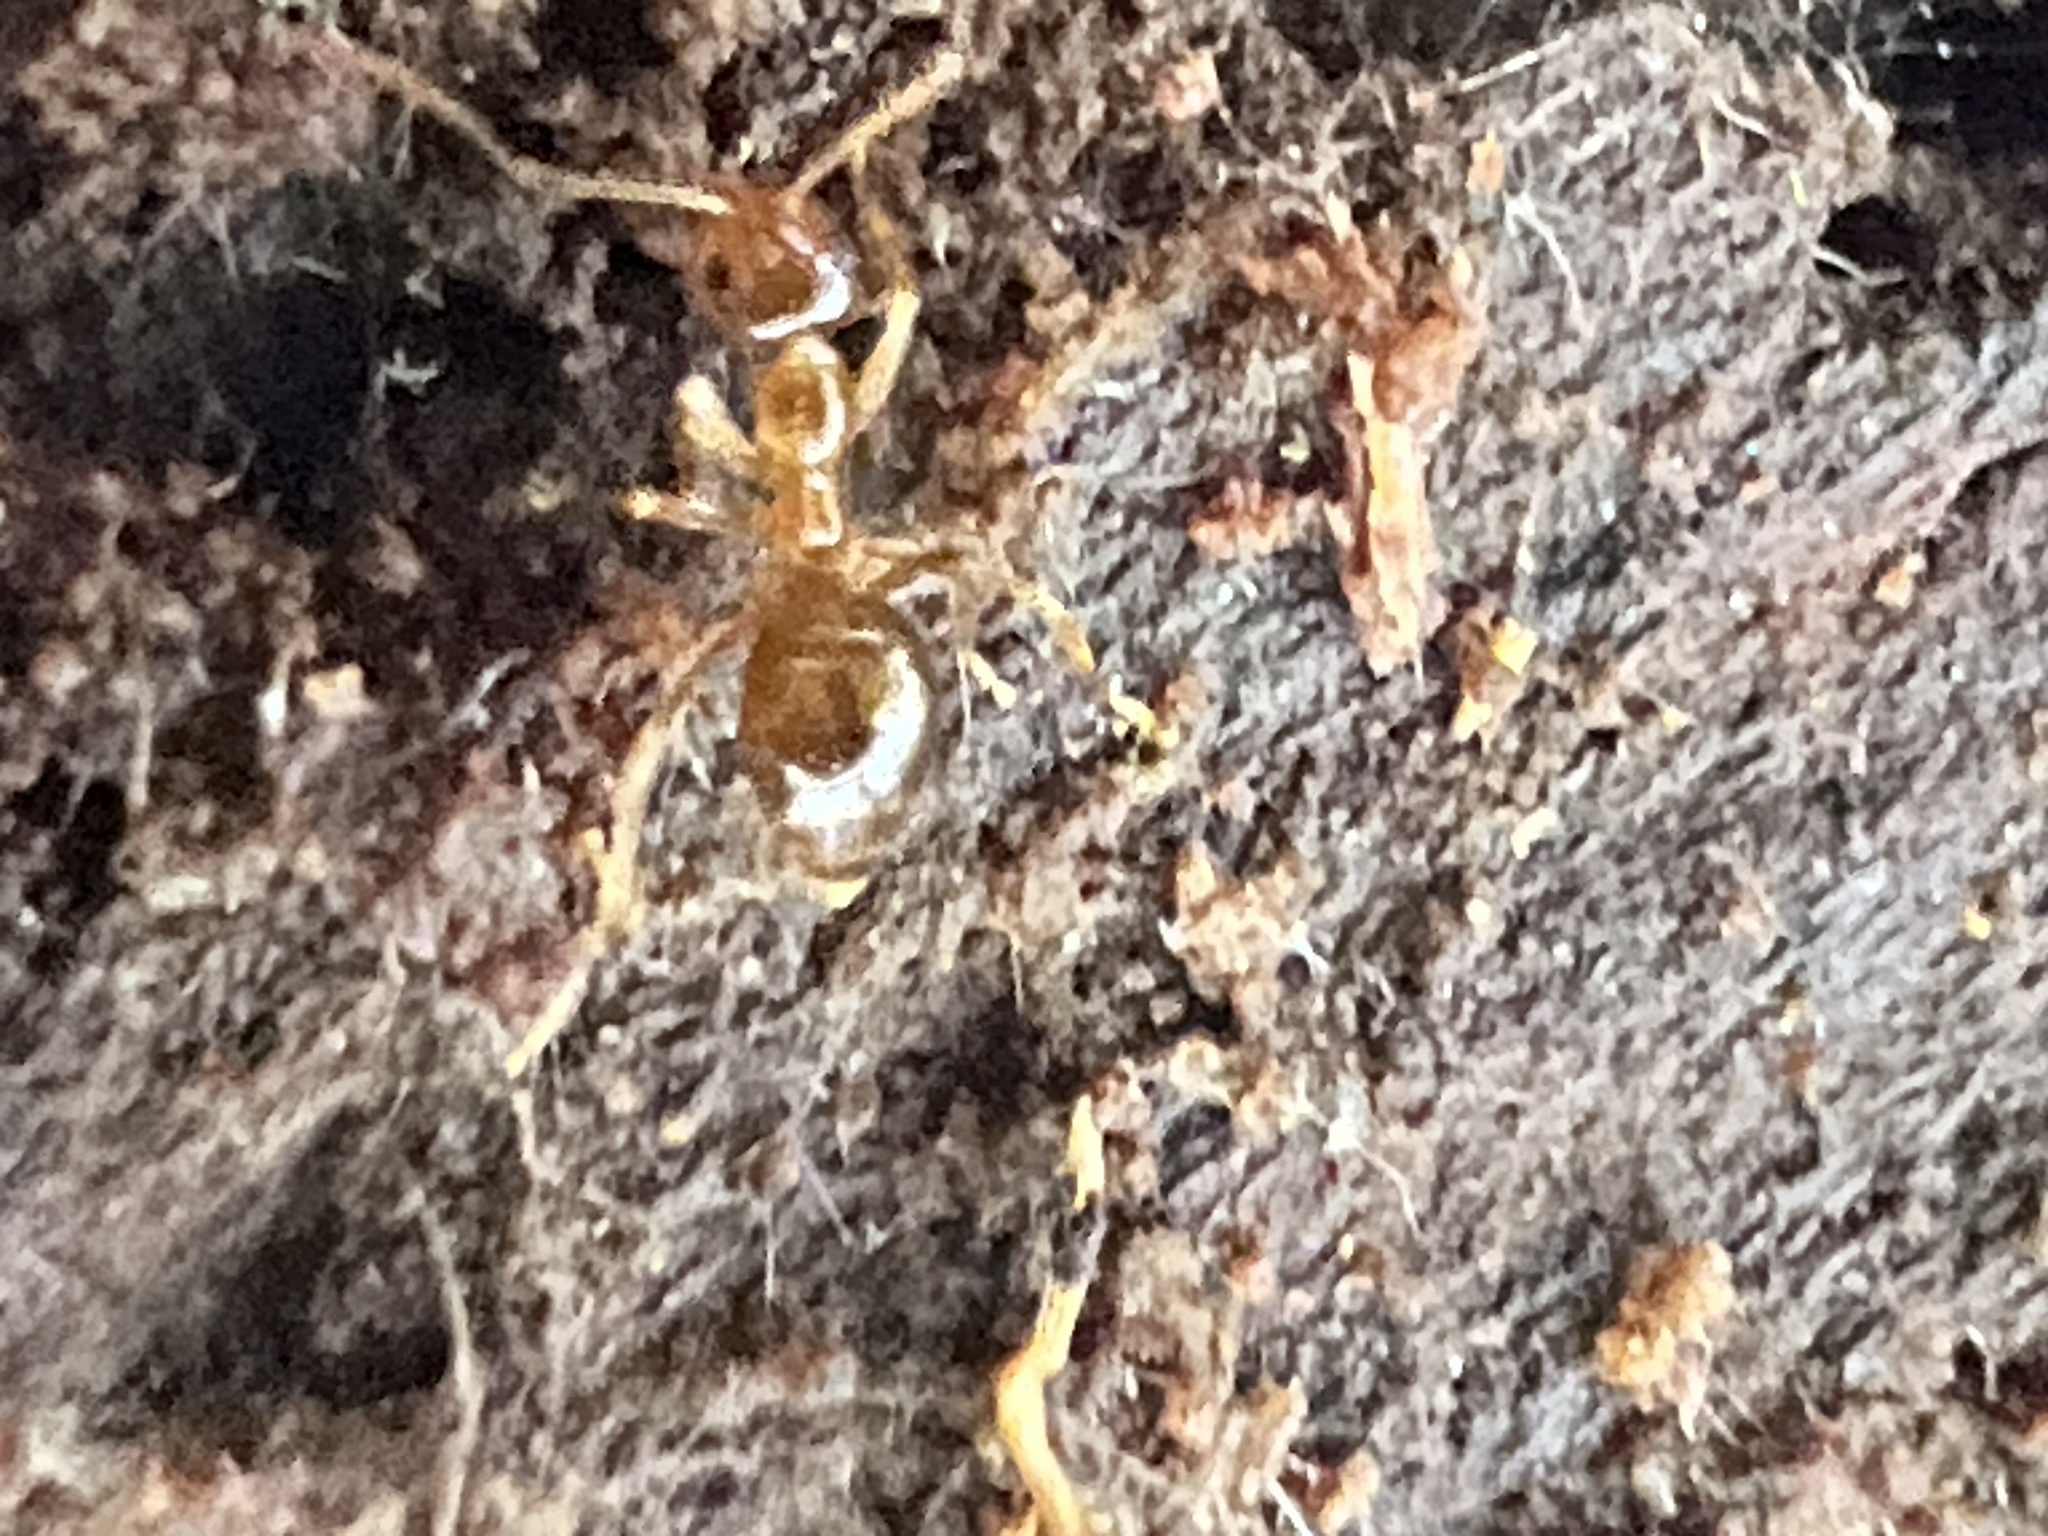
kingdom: Animalia
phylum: Arthropoda
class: Insecta
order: Hymenoptera
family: Formicidae
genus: Prenolepis
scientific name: Prenolepis imparis
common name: Small honey ant
